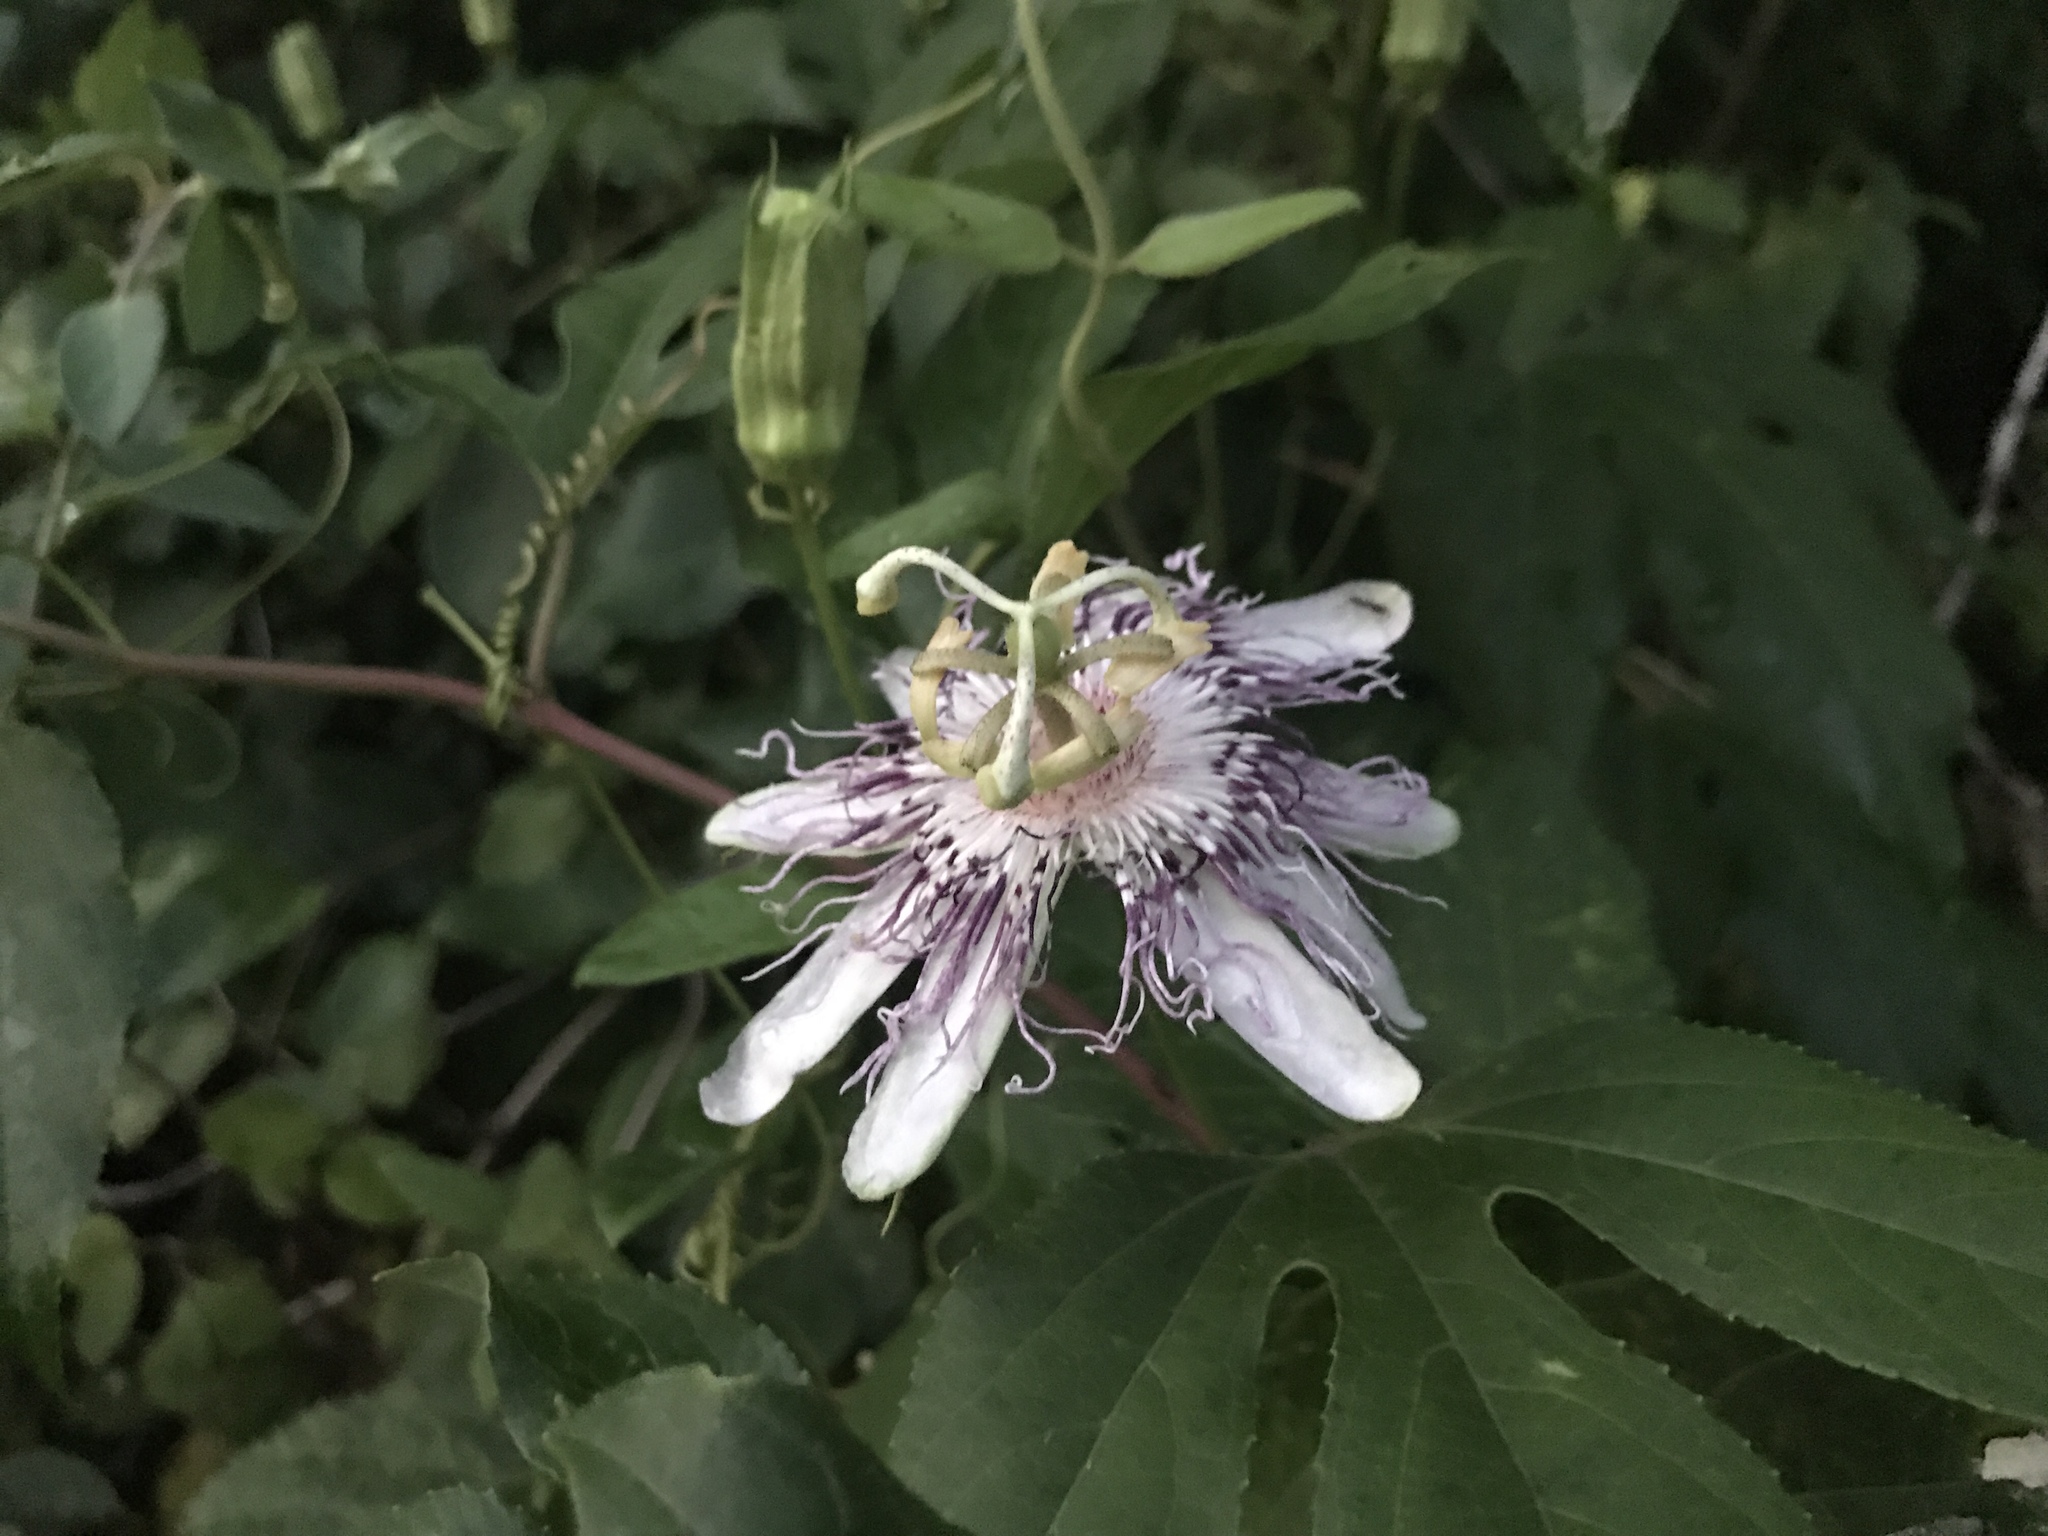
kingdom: Plantae
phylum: Tracheophyta
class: Magnoliopsida
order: Malpighiales
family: Passifloraceae
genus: Passiflora
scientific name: Passiflora incarnata
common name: Apricot-vine
